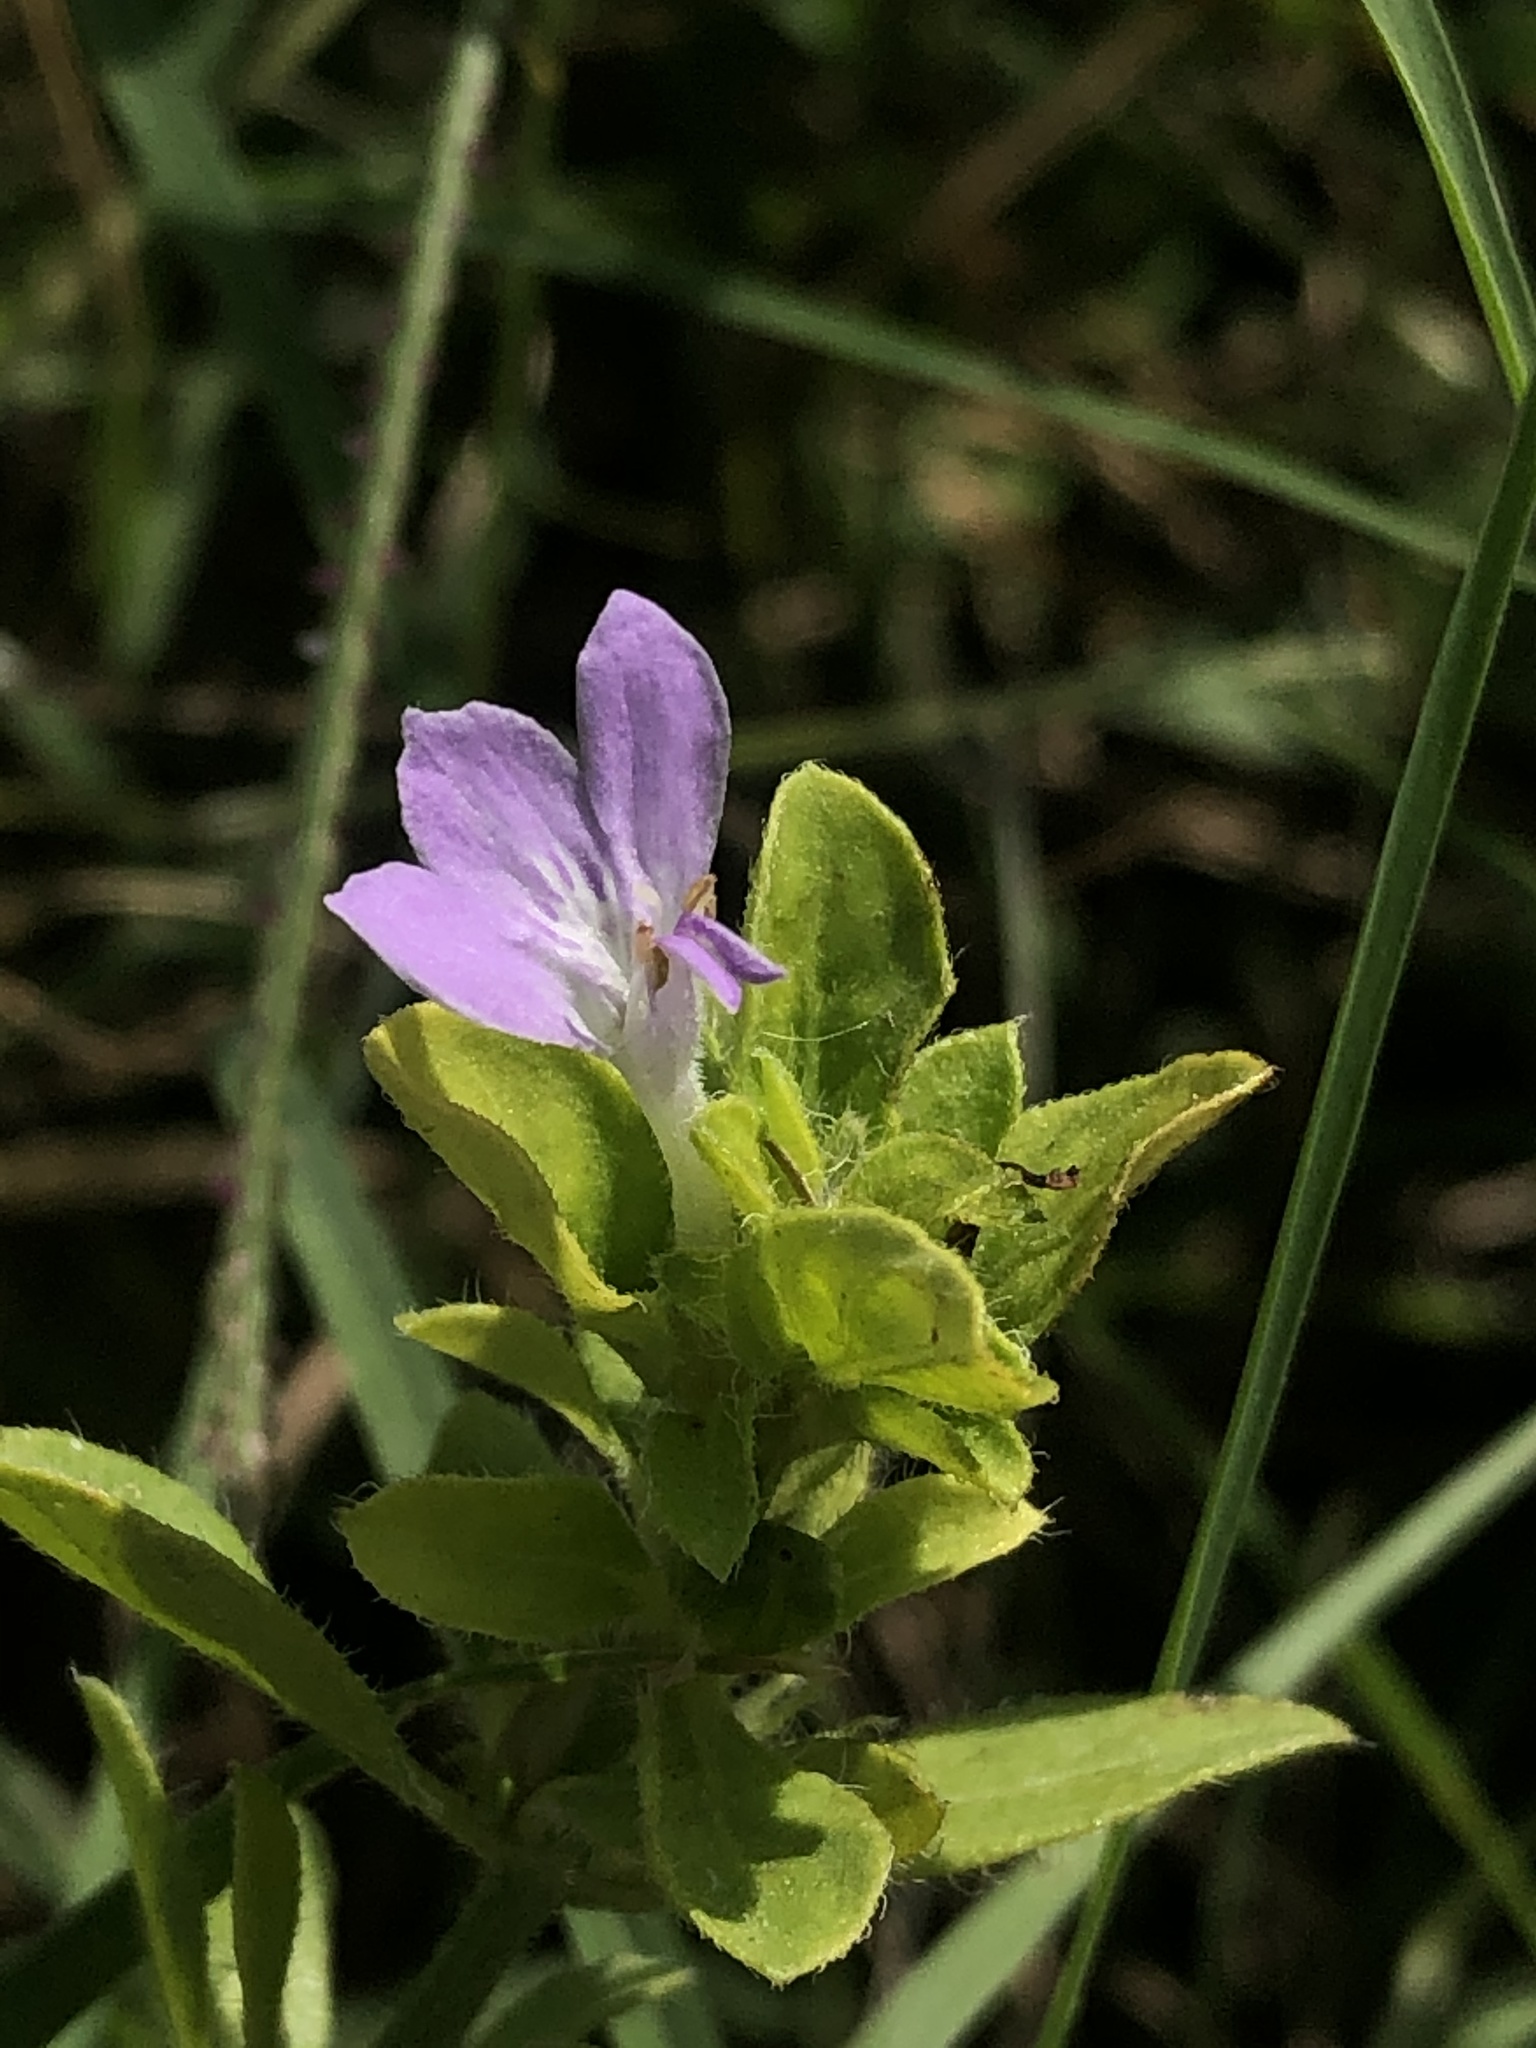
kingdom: Plantae
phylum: Tracheophyta
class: Magnoliopsida
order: Lamiales
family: Acanthaceae
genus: Justicia
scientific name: Justicia pilosella
